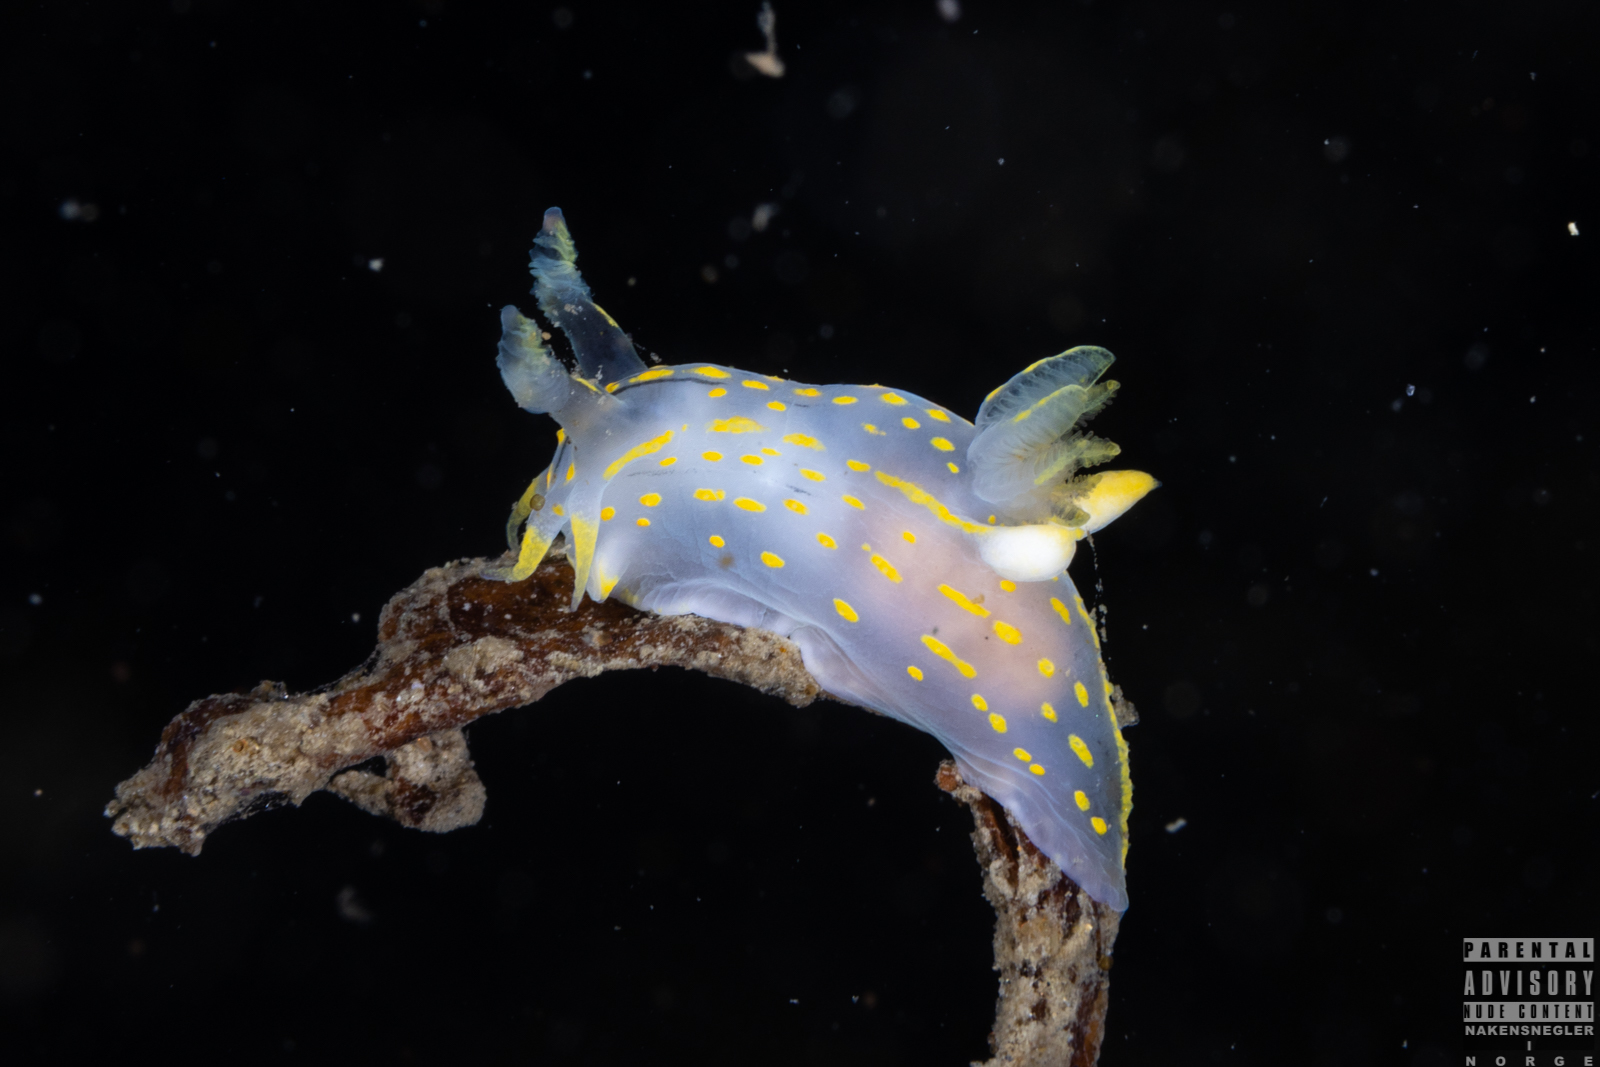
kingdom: Animalia
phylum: Mollusca
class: Gastropoda
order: Nudibranchia
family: Polyceridae
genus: Polycera
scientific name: Polycera quadrilineata
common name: Four-striped polycera
